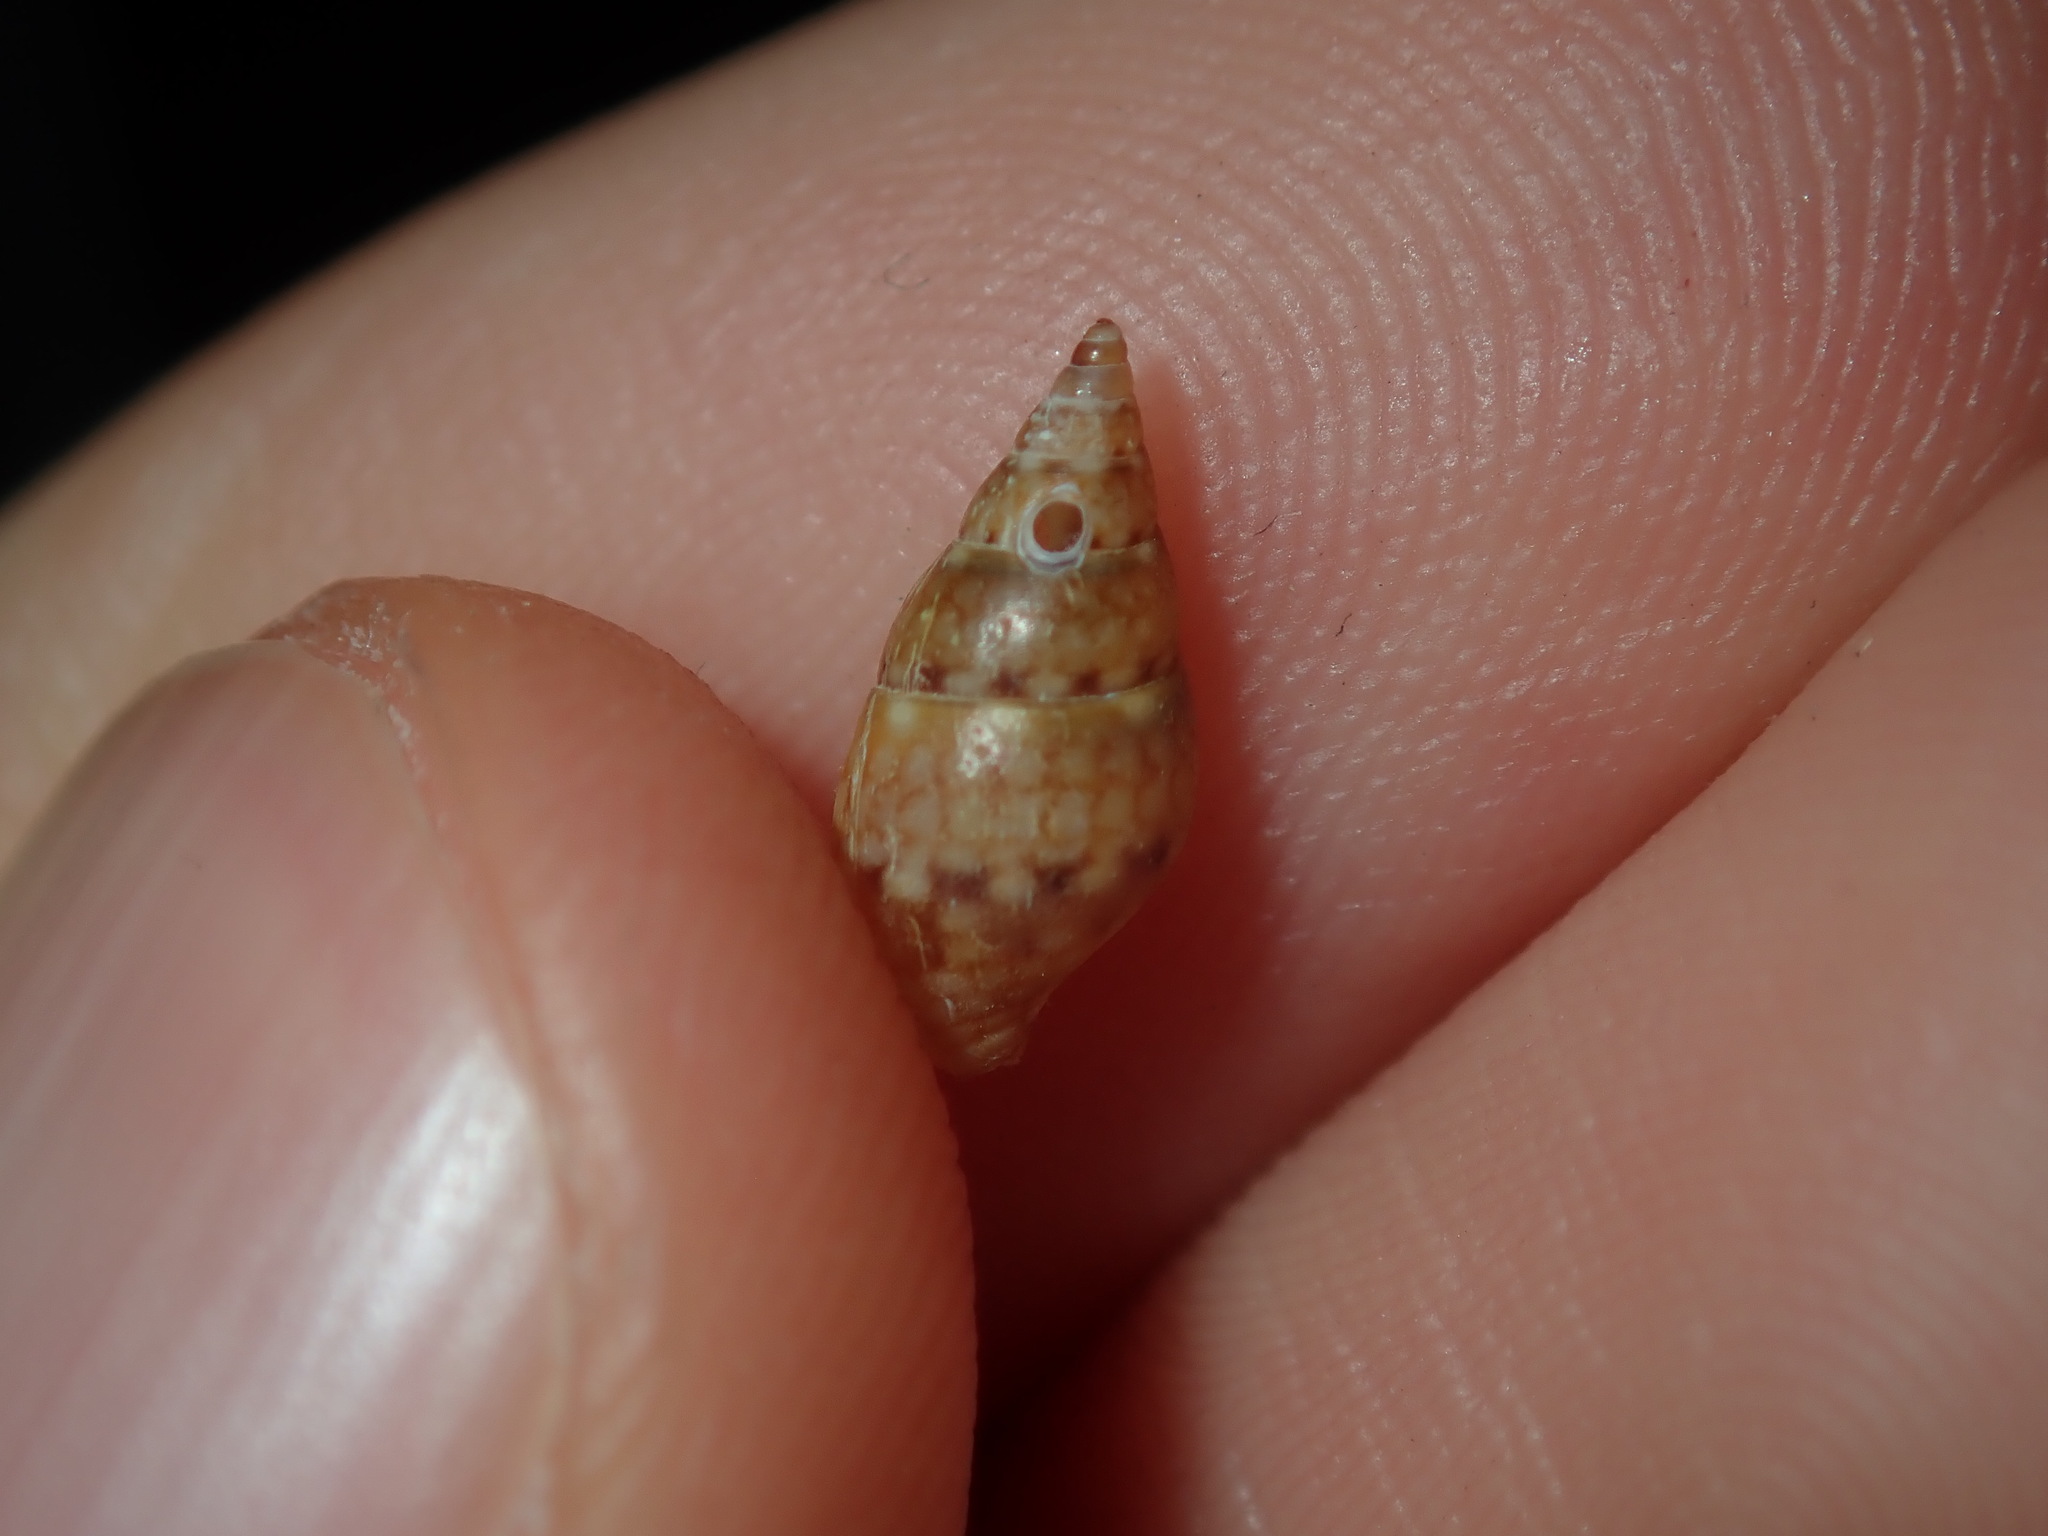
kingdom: Animalia
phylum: Mollusca
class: Gastropoda
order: Neogastropoda
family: Columbellidae
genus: Pseudamycla
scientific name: Pseudamycla dermestoidea
